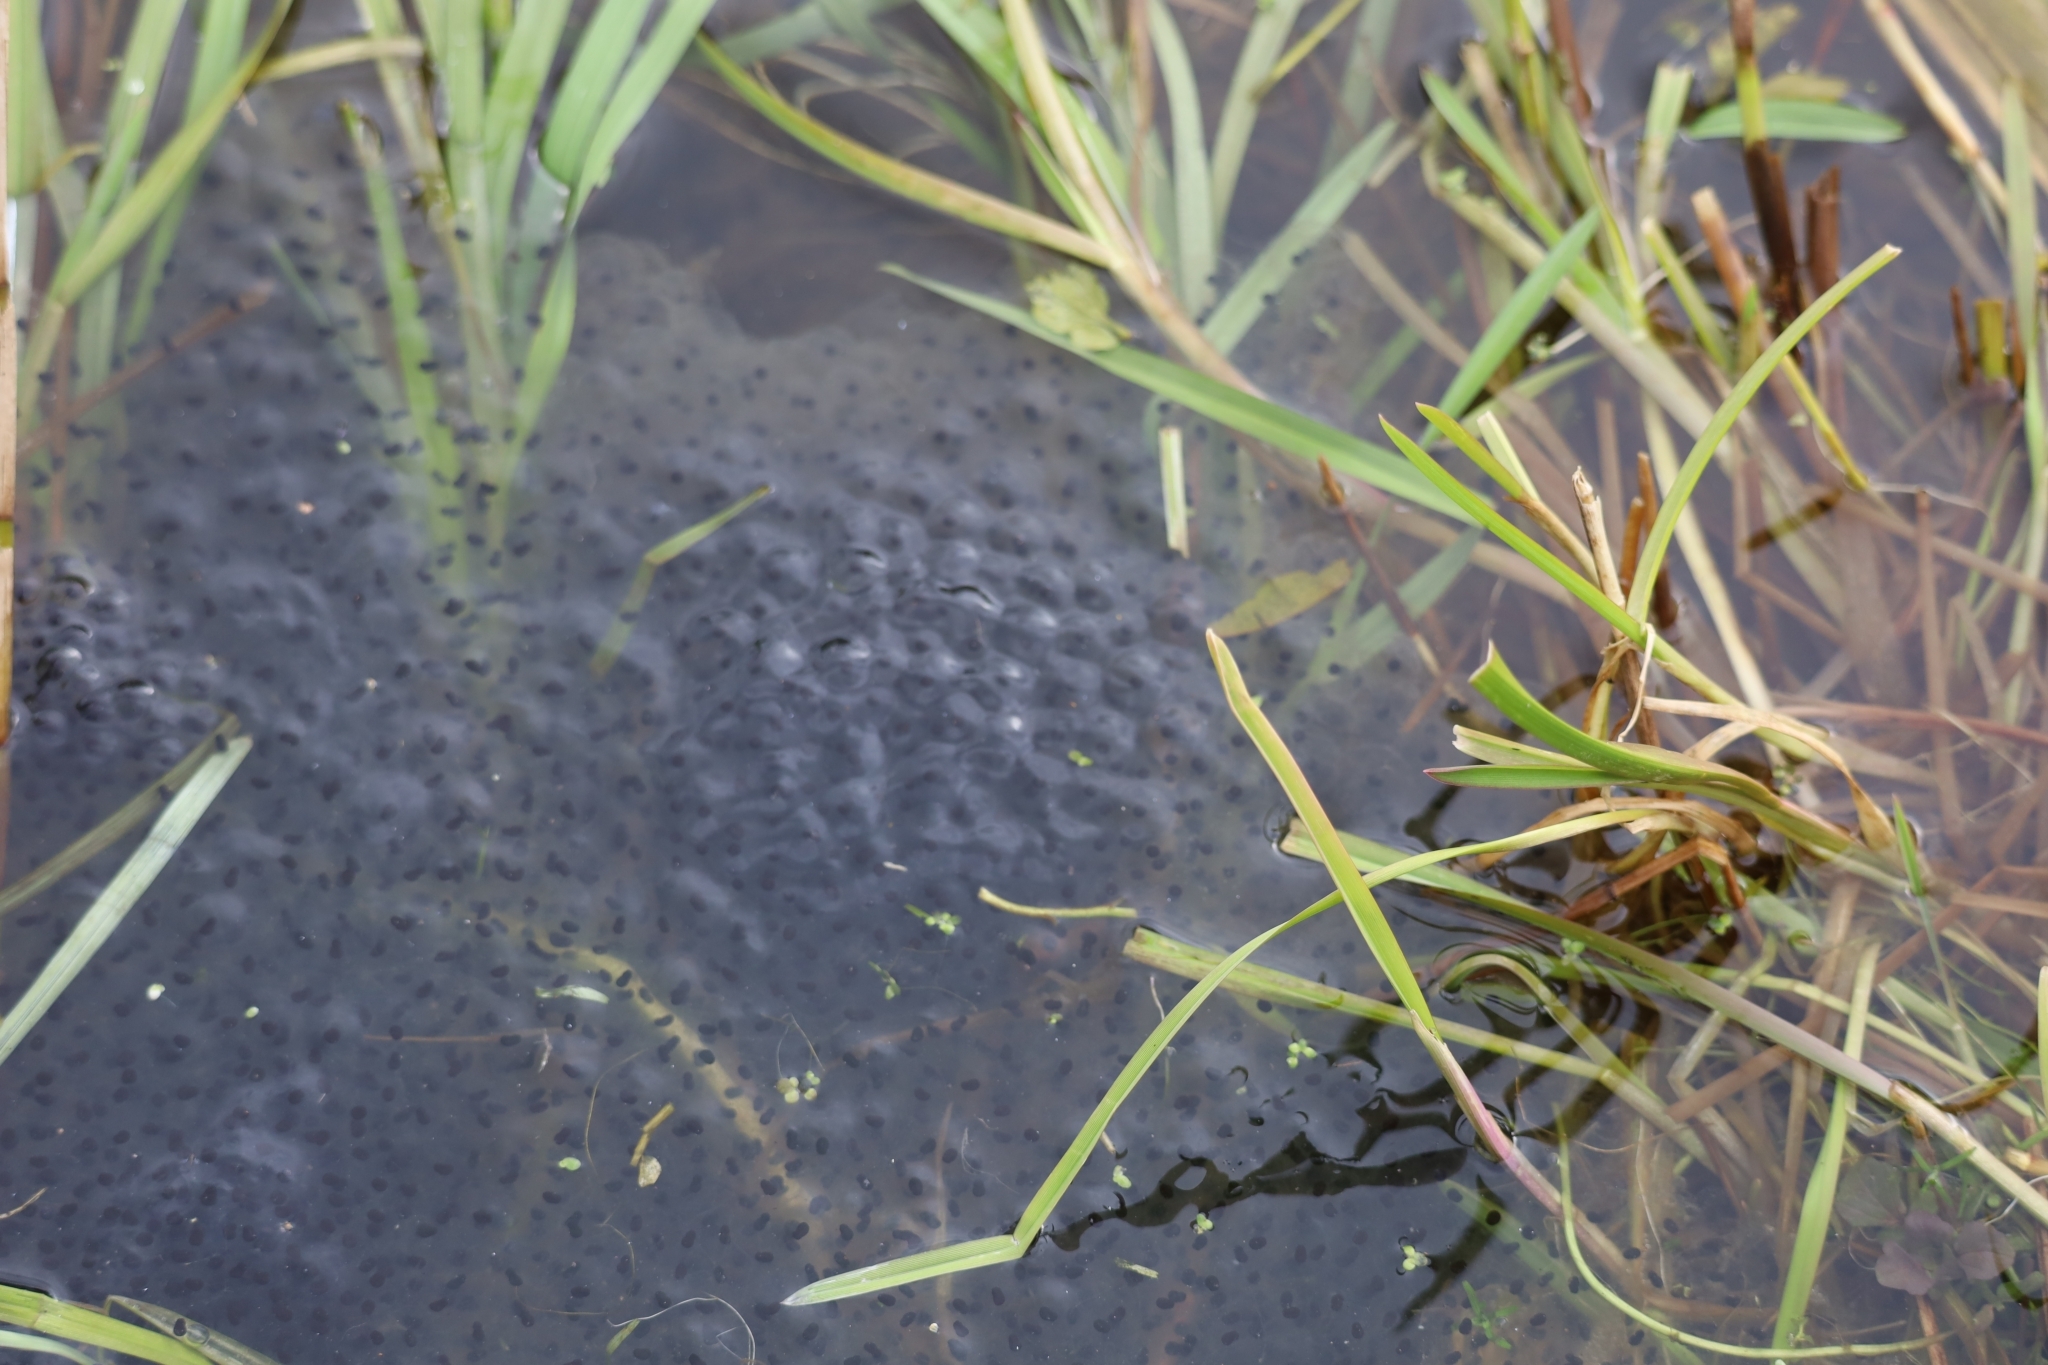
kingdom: Animalia
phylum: Chordata
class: Amphibia
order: Anura
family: Ranidae
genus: Rana
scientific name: Rana temporaria
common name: Common frog
